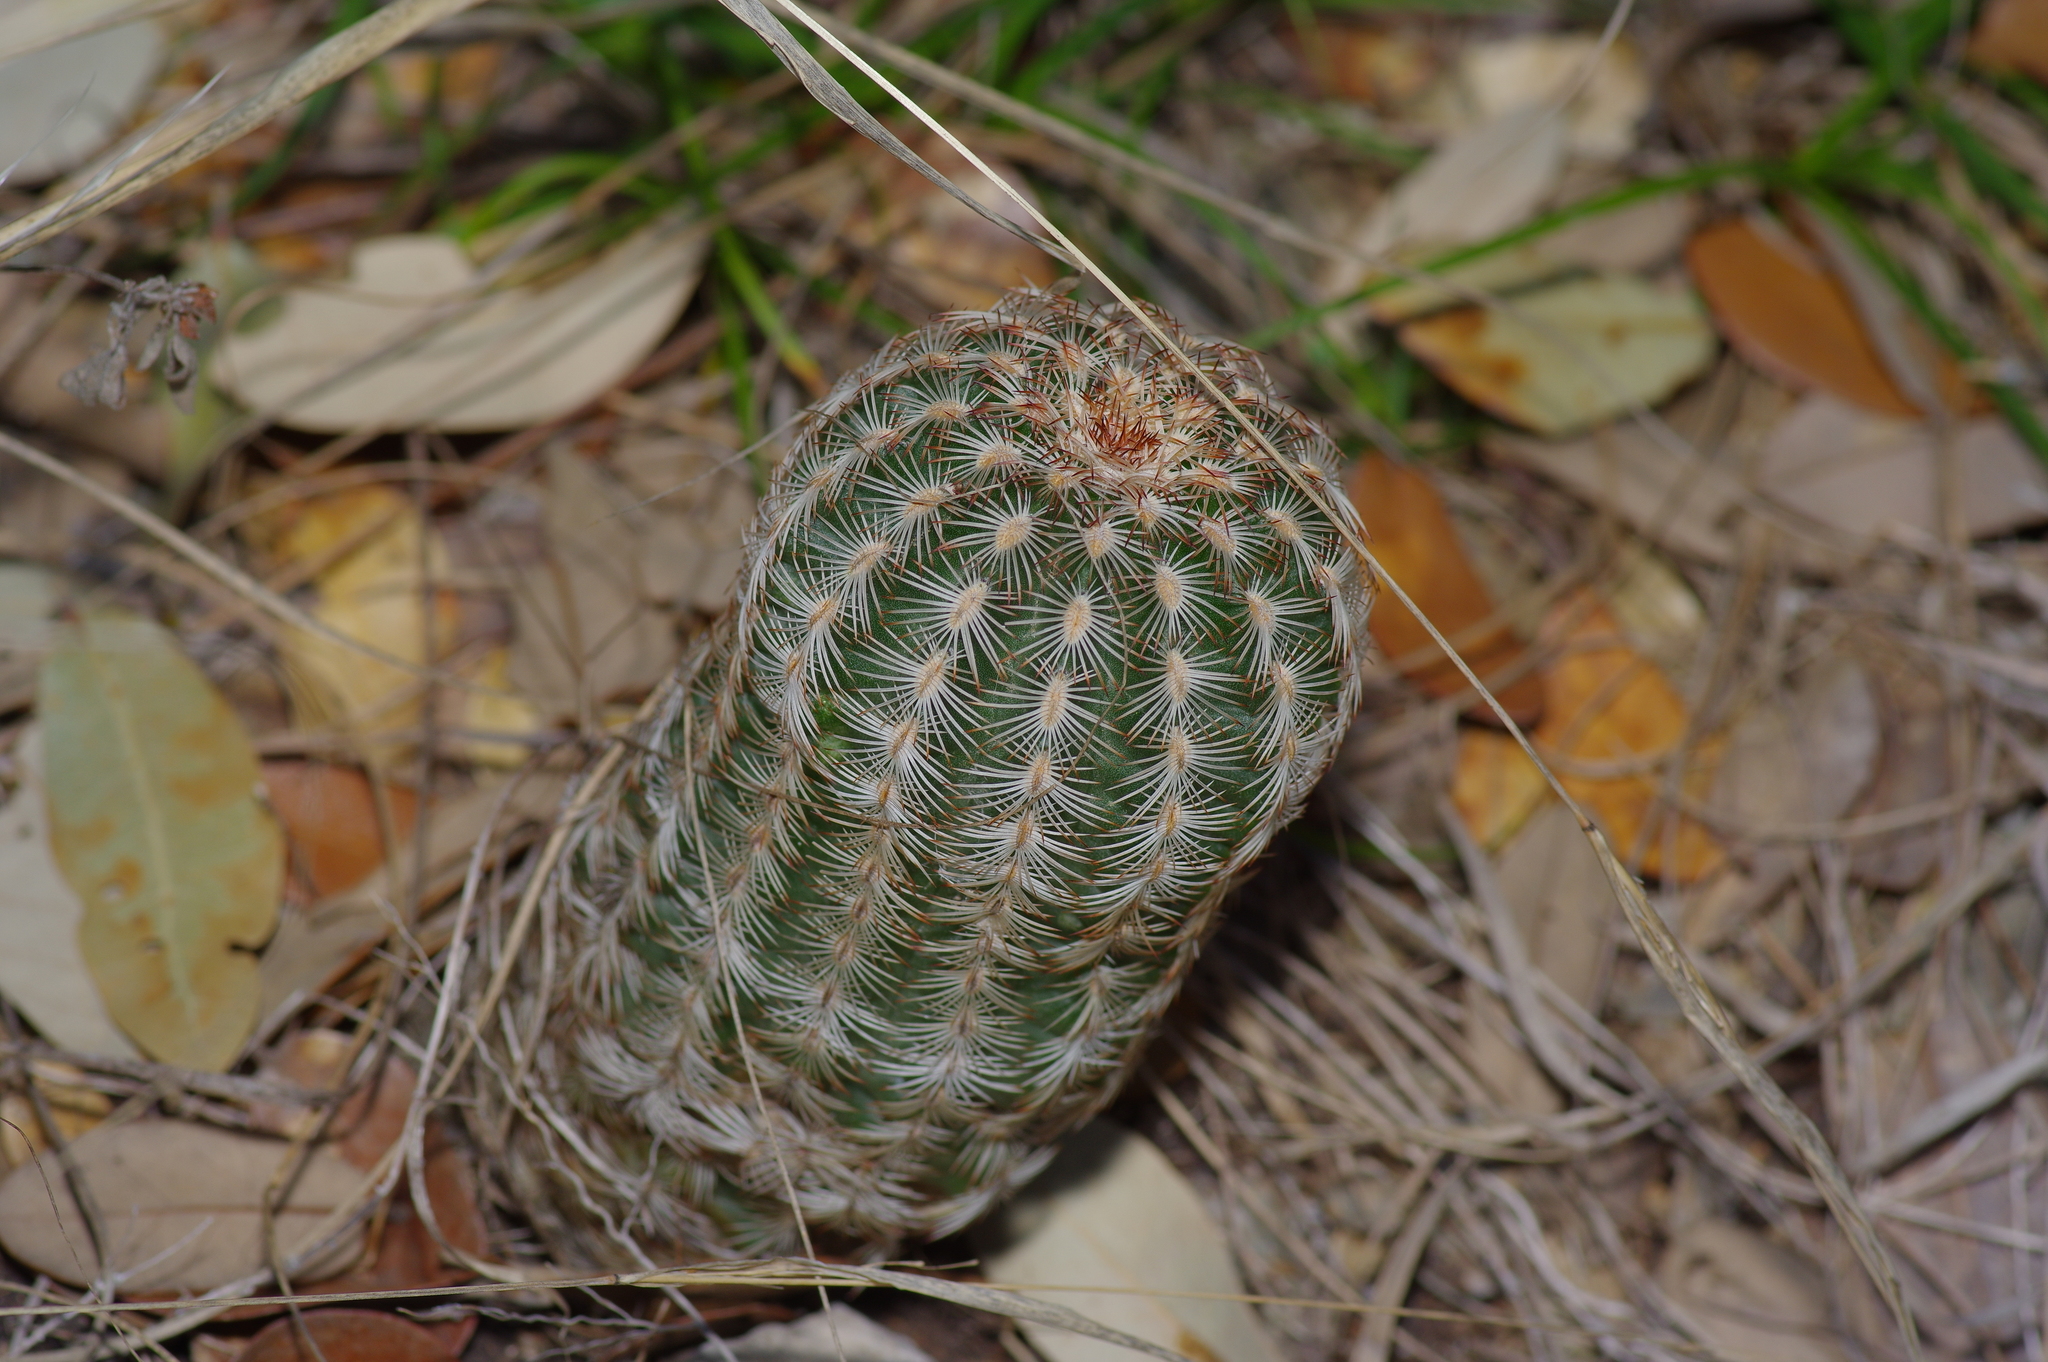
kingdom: Plantae
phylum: Tracheophyta
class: Magnoliopsida
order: Caryophyllales
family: Cactaceae
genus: Echinocereus
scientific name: Echinocereus reichenbachii
